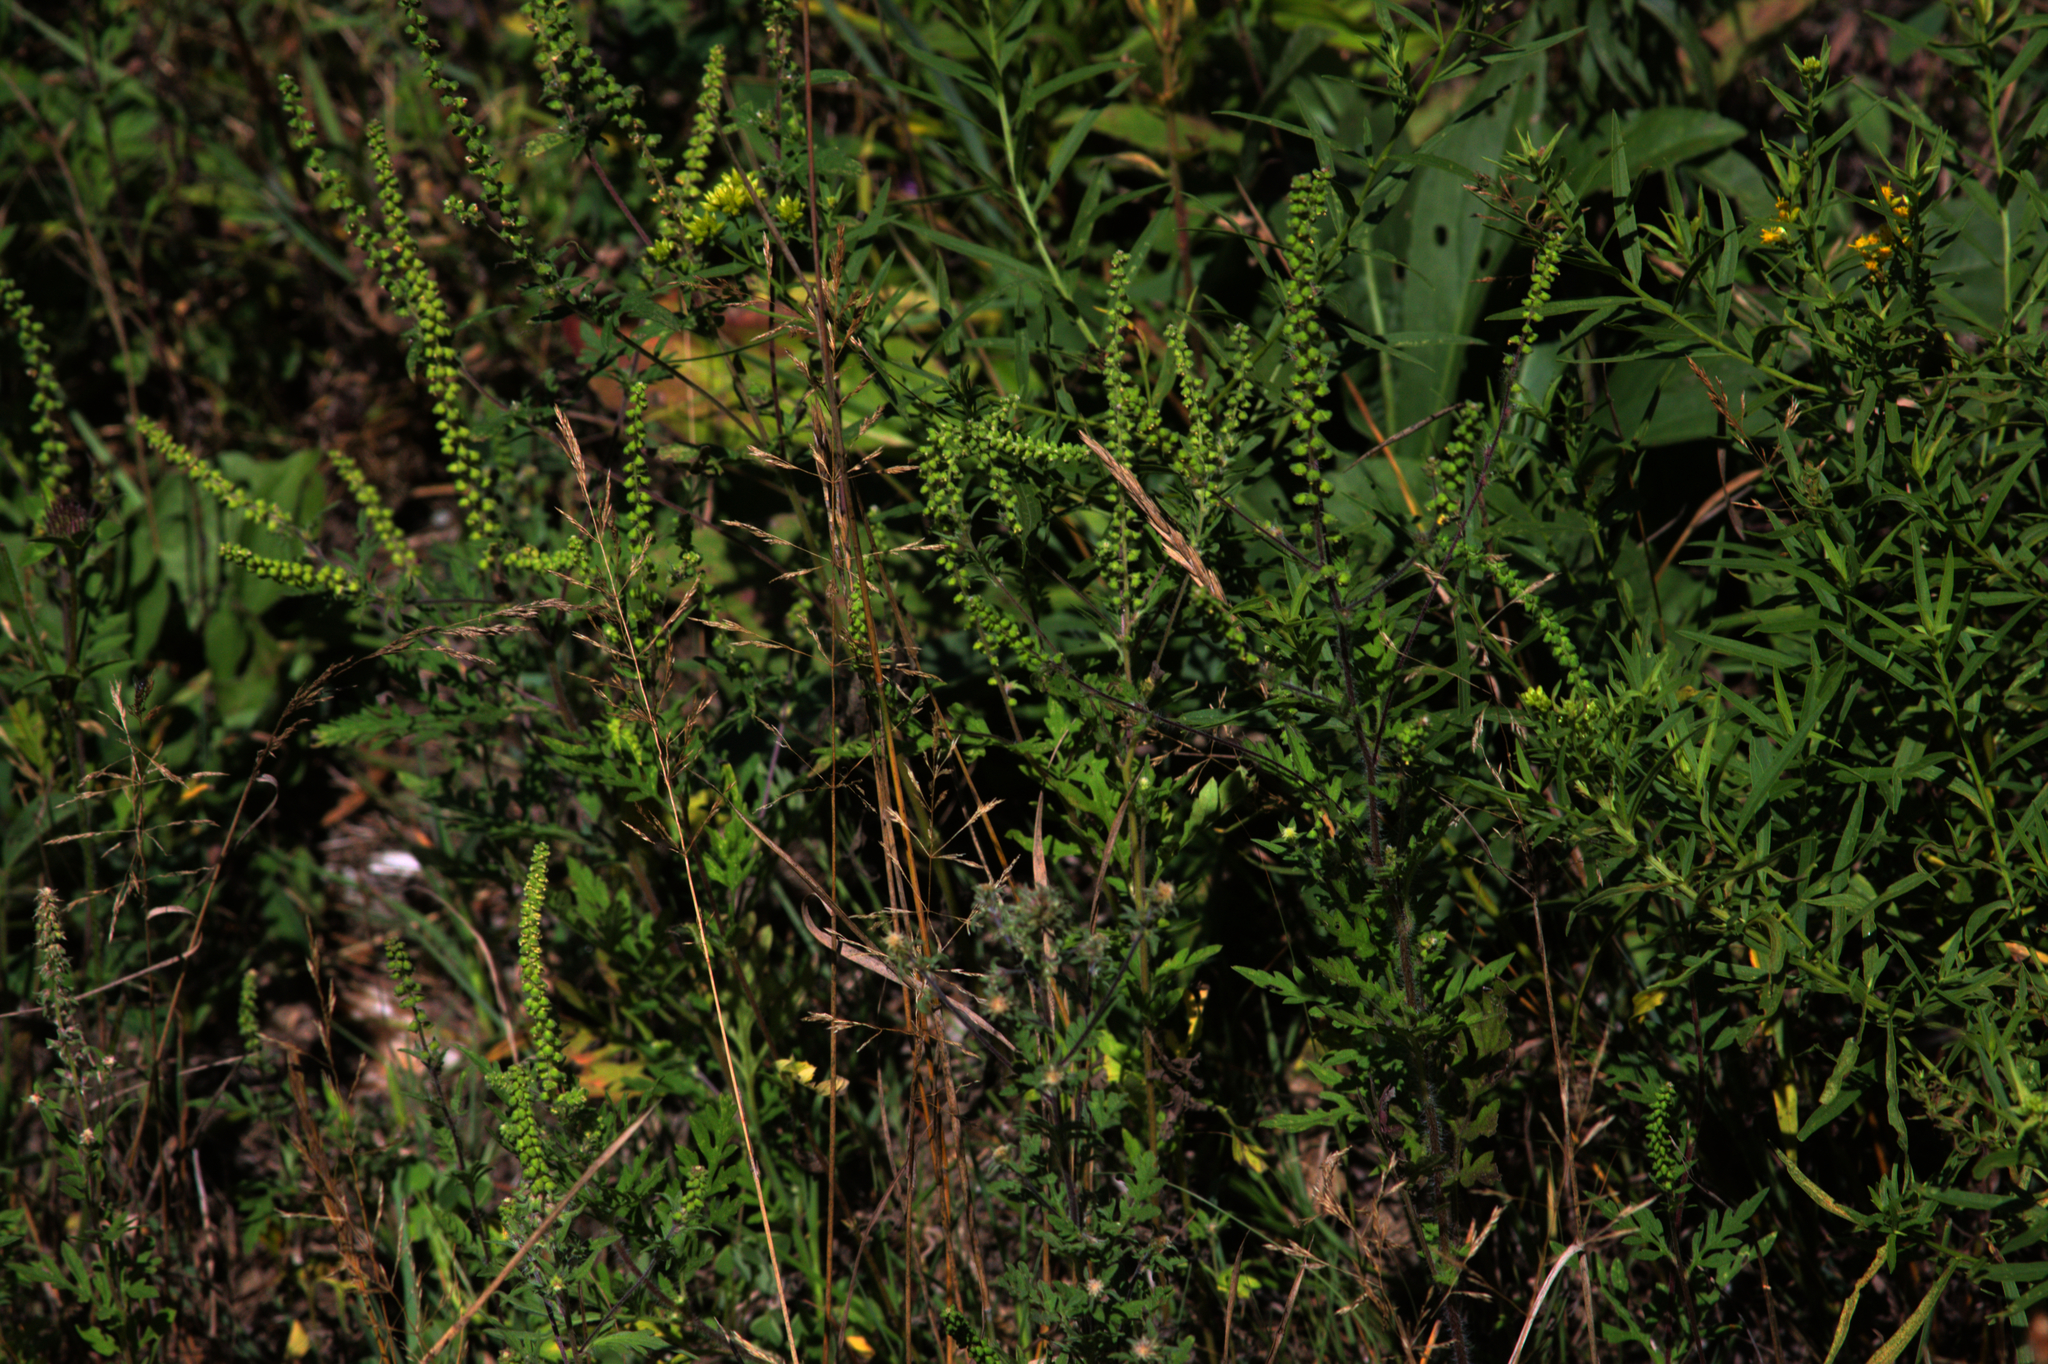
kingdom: Plantae
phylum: Tracheophyta
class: Magnoliopsida
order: Asterales
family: Asteraceae
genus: Ambrosia
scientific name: Ambrosia artemisiifolia
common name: Annual ragweed
